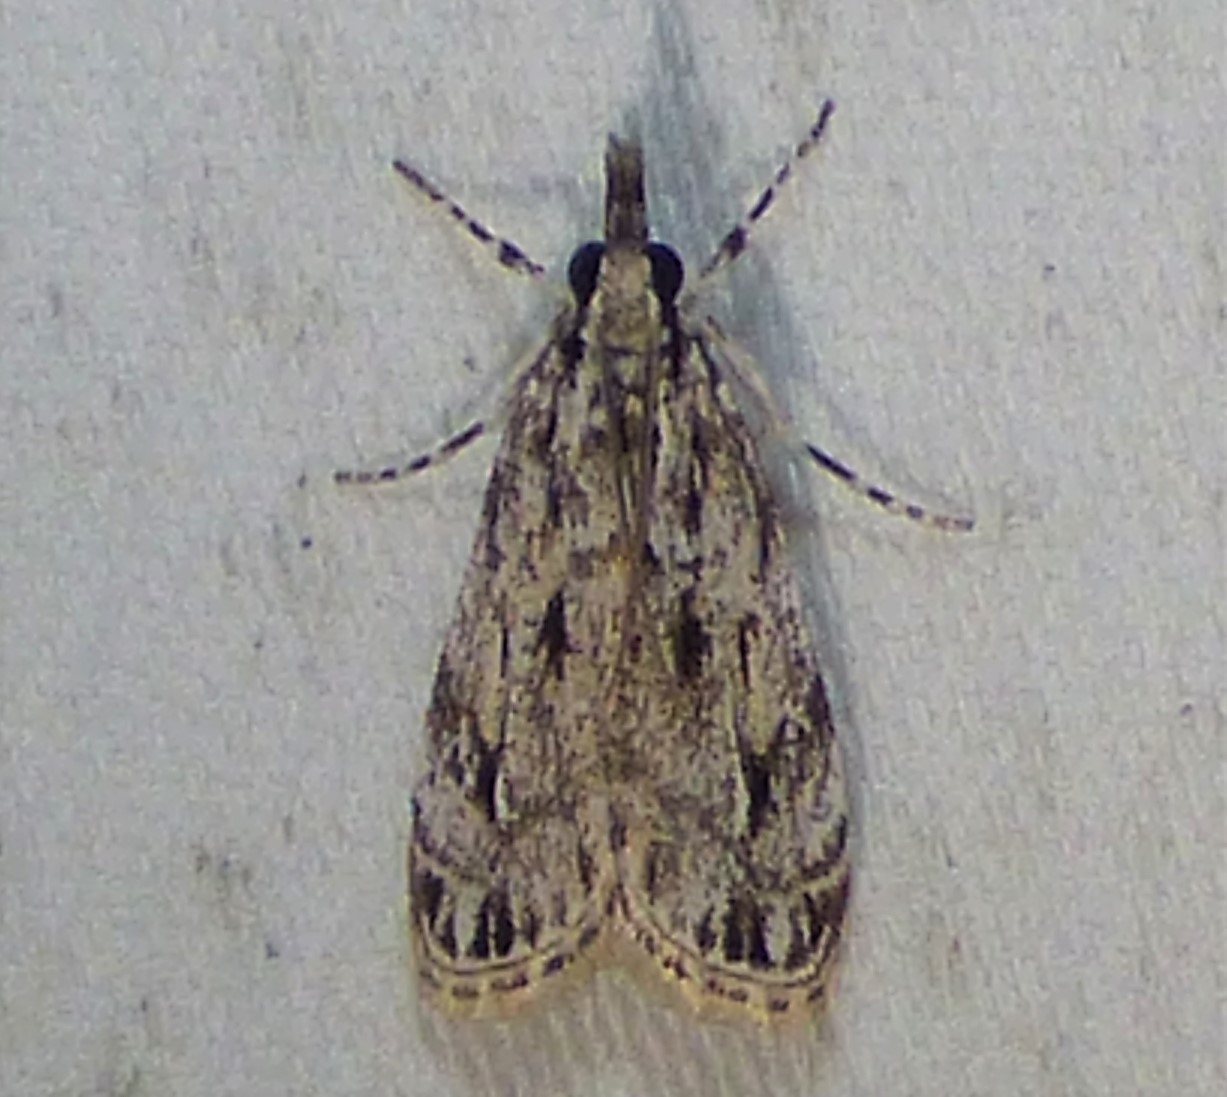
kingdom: Animalia
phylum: Arthropoda
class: Insecta
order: Lepidoptera
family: Crambidae
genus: Eudonia
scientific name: Eudonia strigalis
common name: Striped eudonia moth
